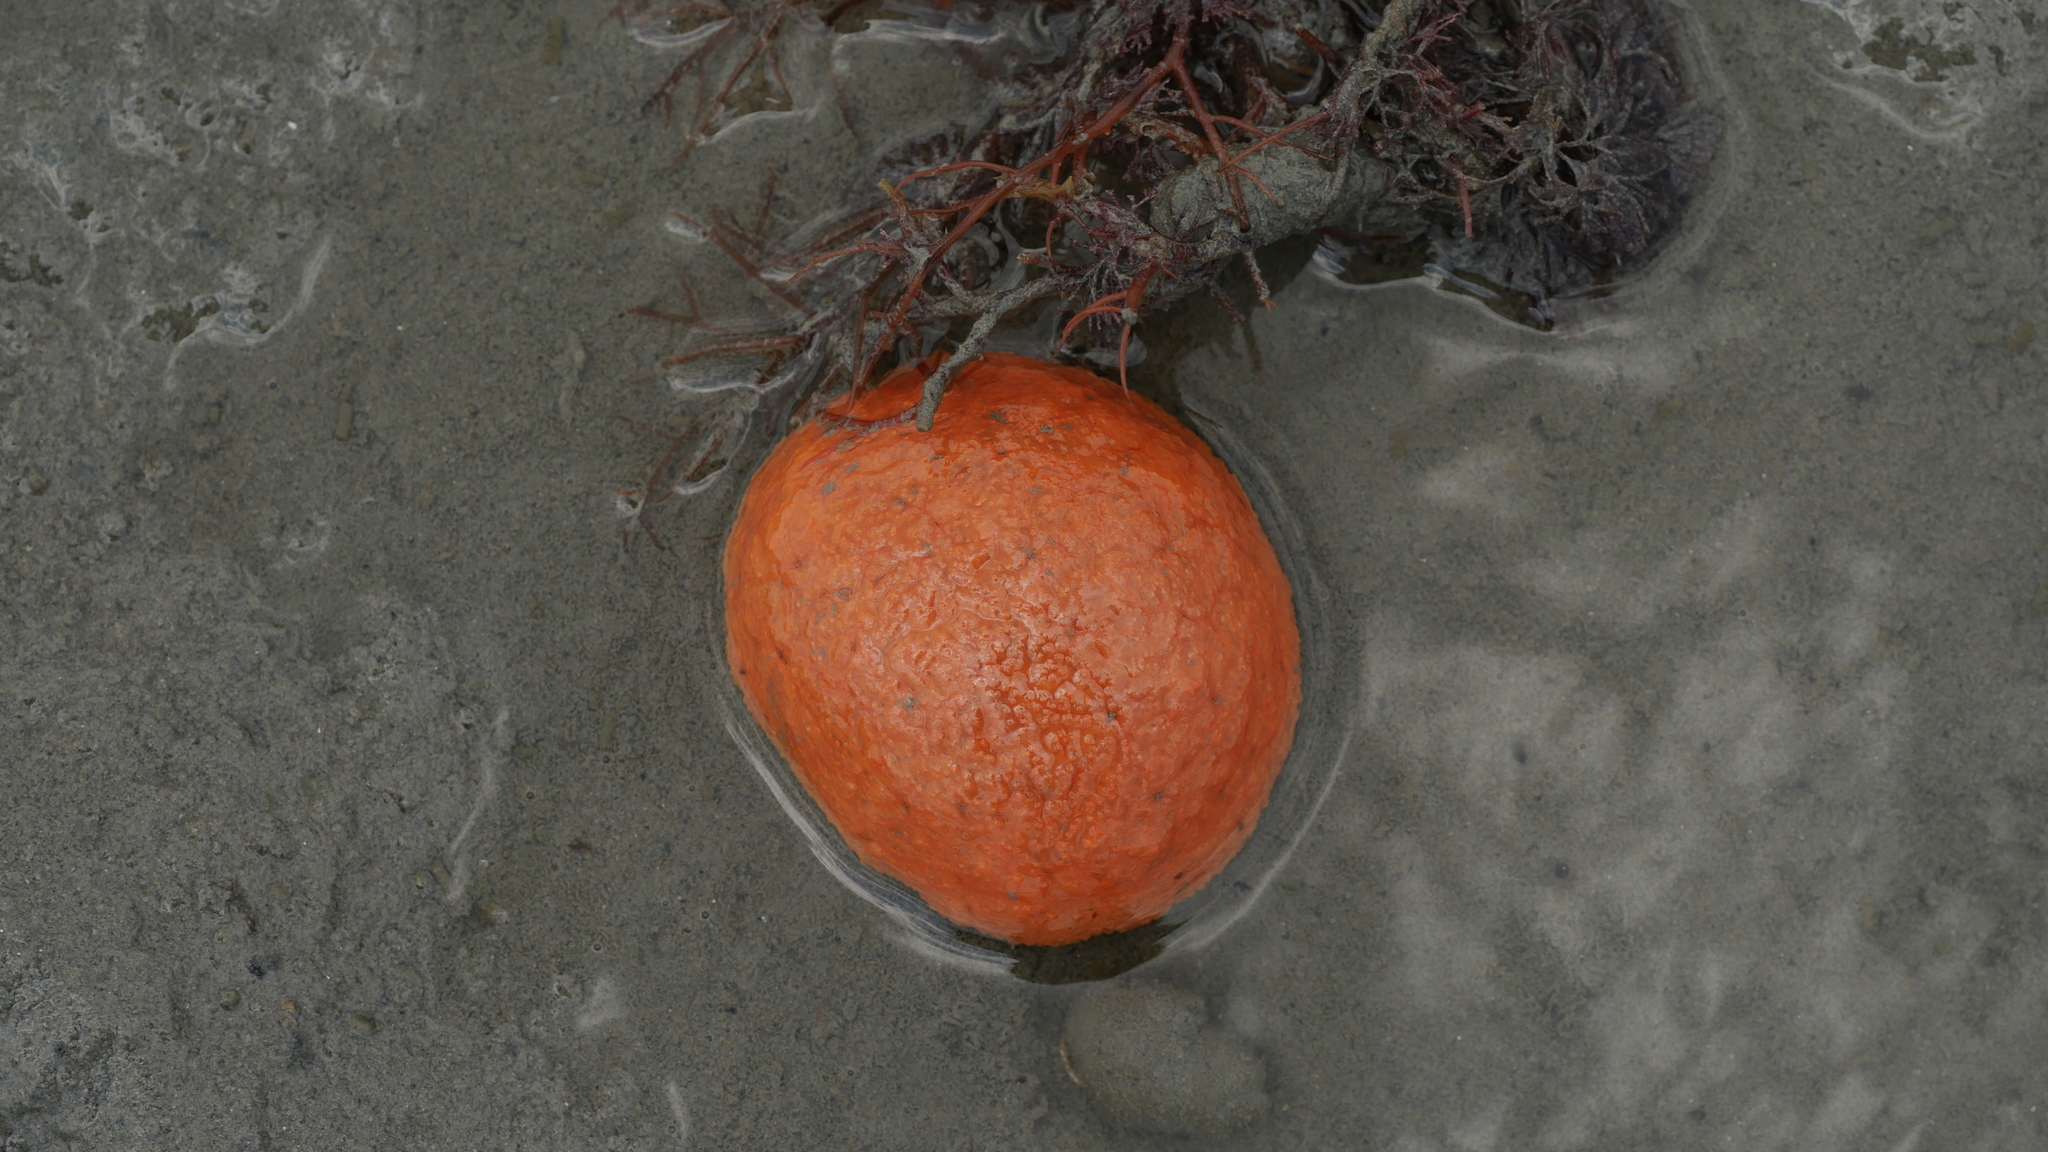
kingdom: Animalia
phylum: Chordata
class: Ascidiacea
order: Aplousobranchia
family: Polyclinidae
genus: Aplidium
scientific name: Aplidium stellatum
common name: Atlantic sea pork
